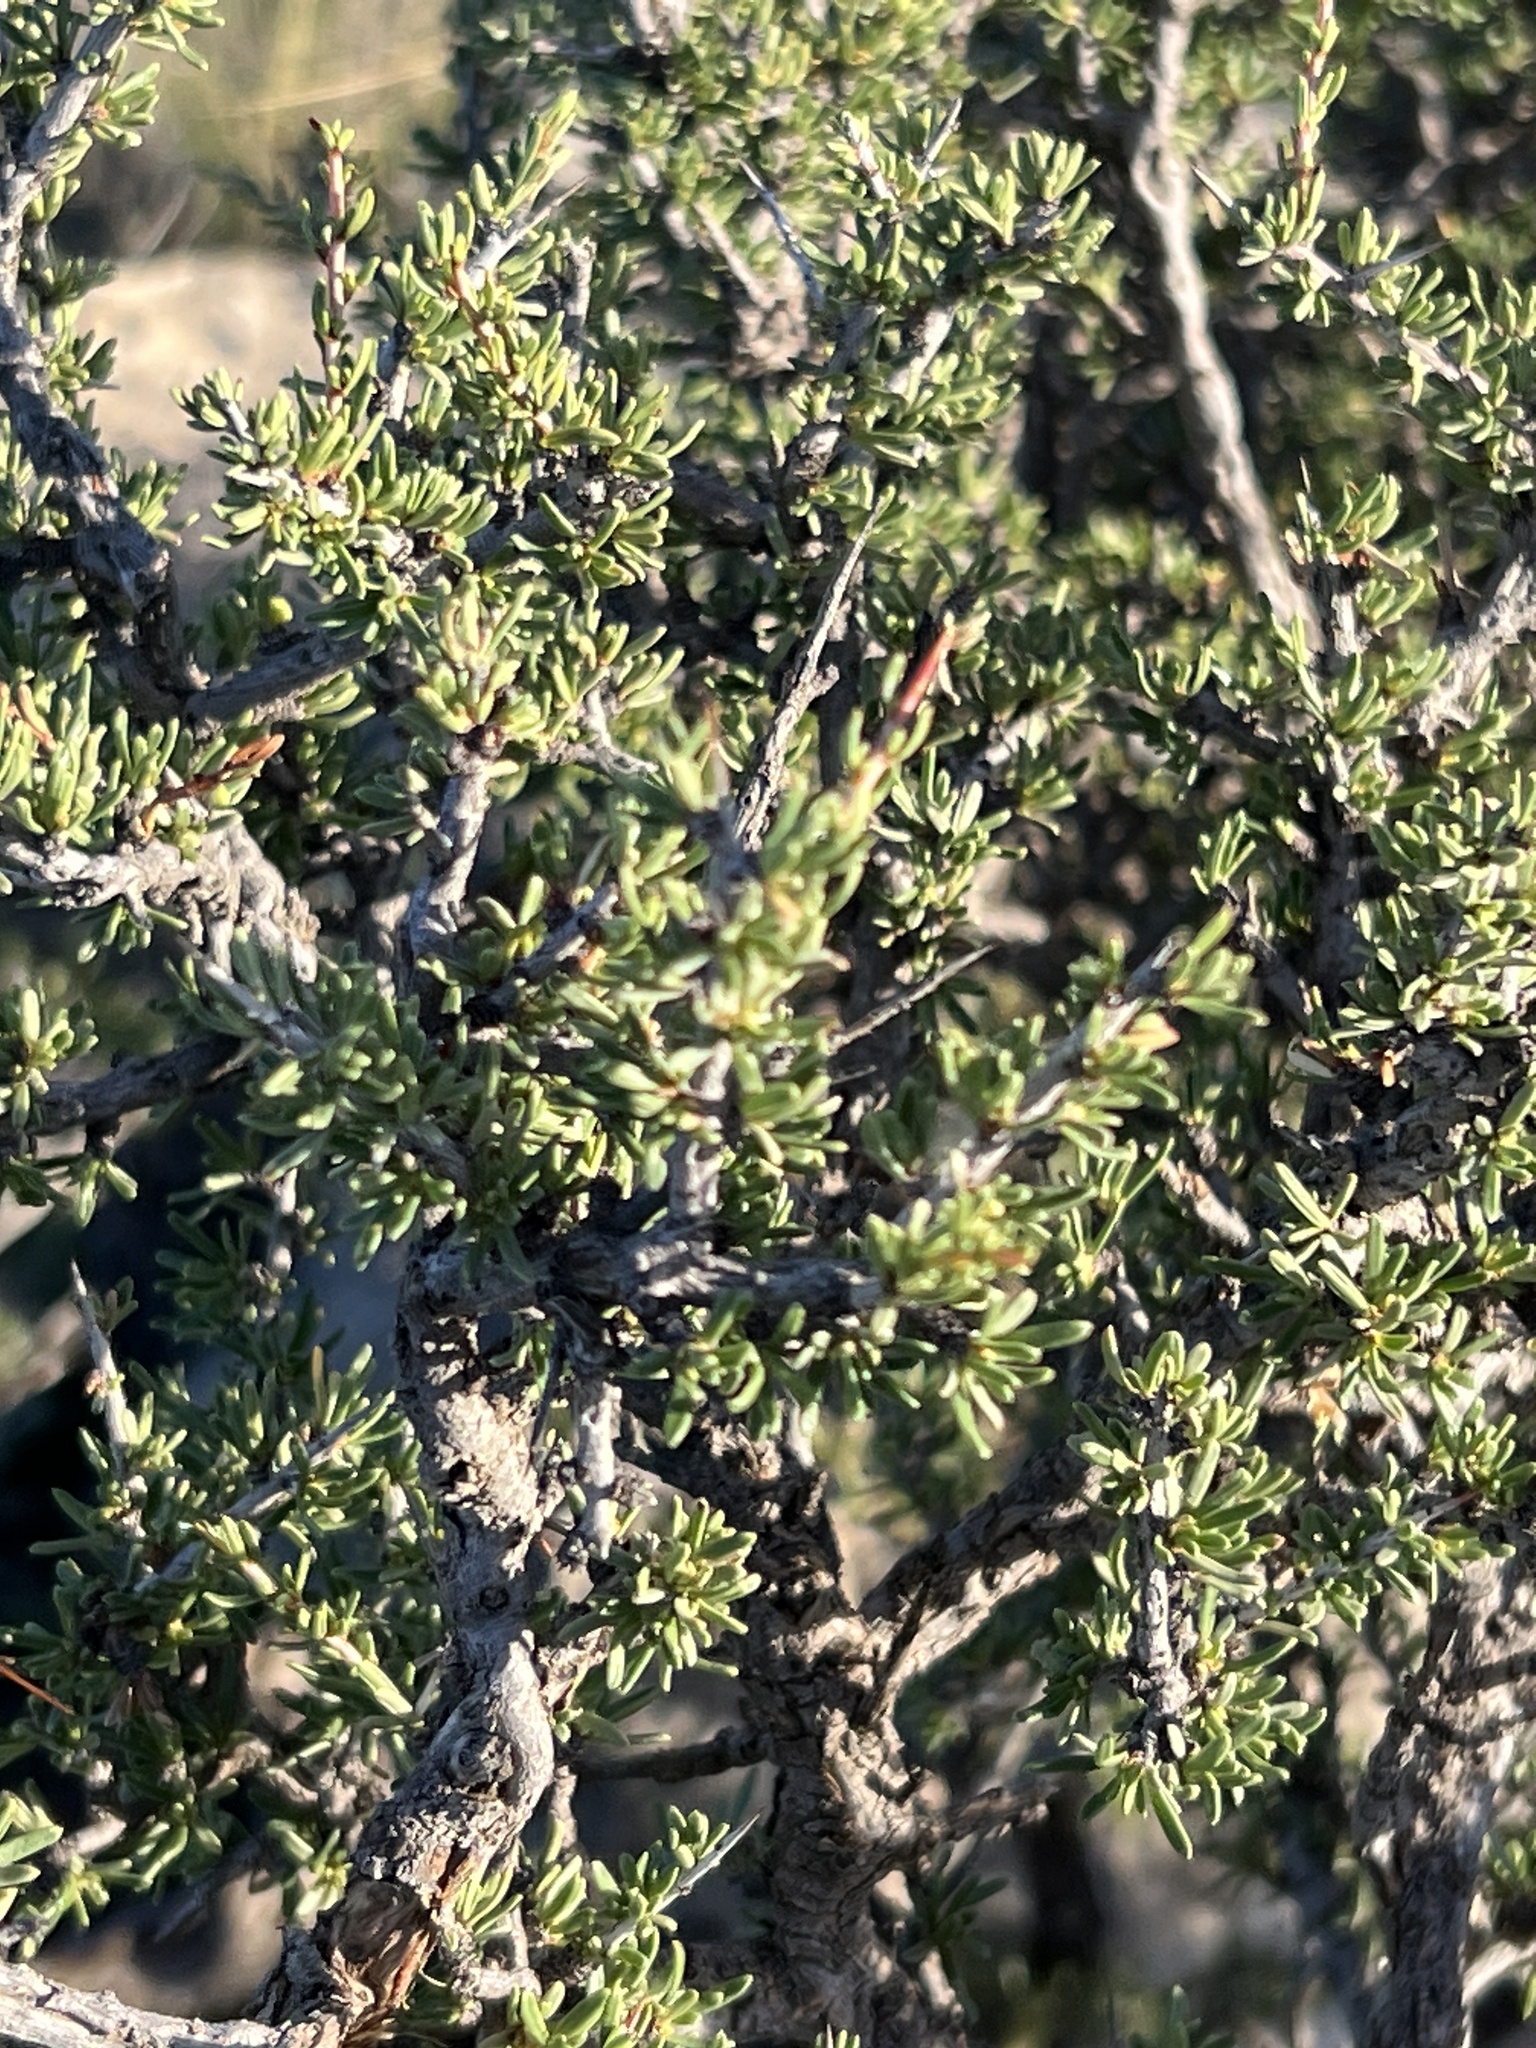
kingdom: Plantae
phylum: Tracheophyta
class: Magnoliopsida
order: Rosales
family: Rhamnaceae
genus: Condalia
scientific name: Condalia ericoides
